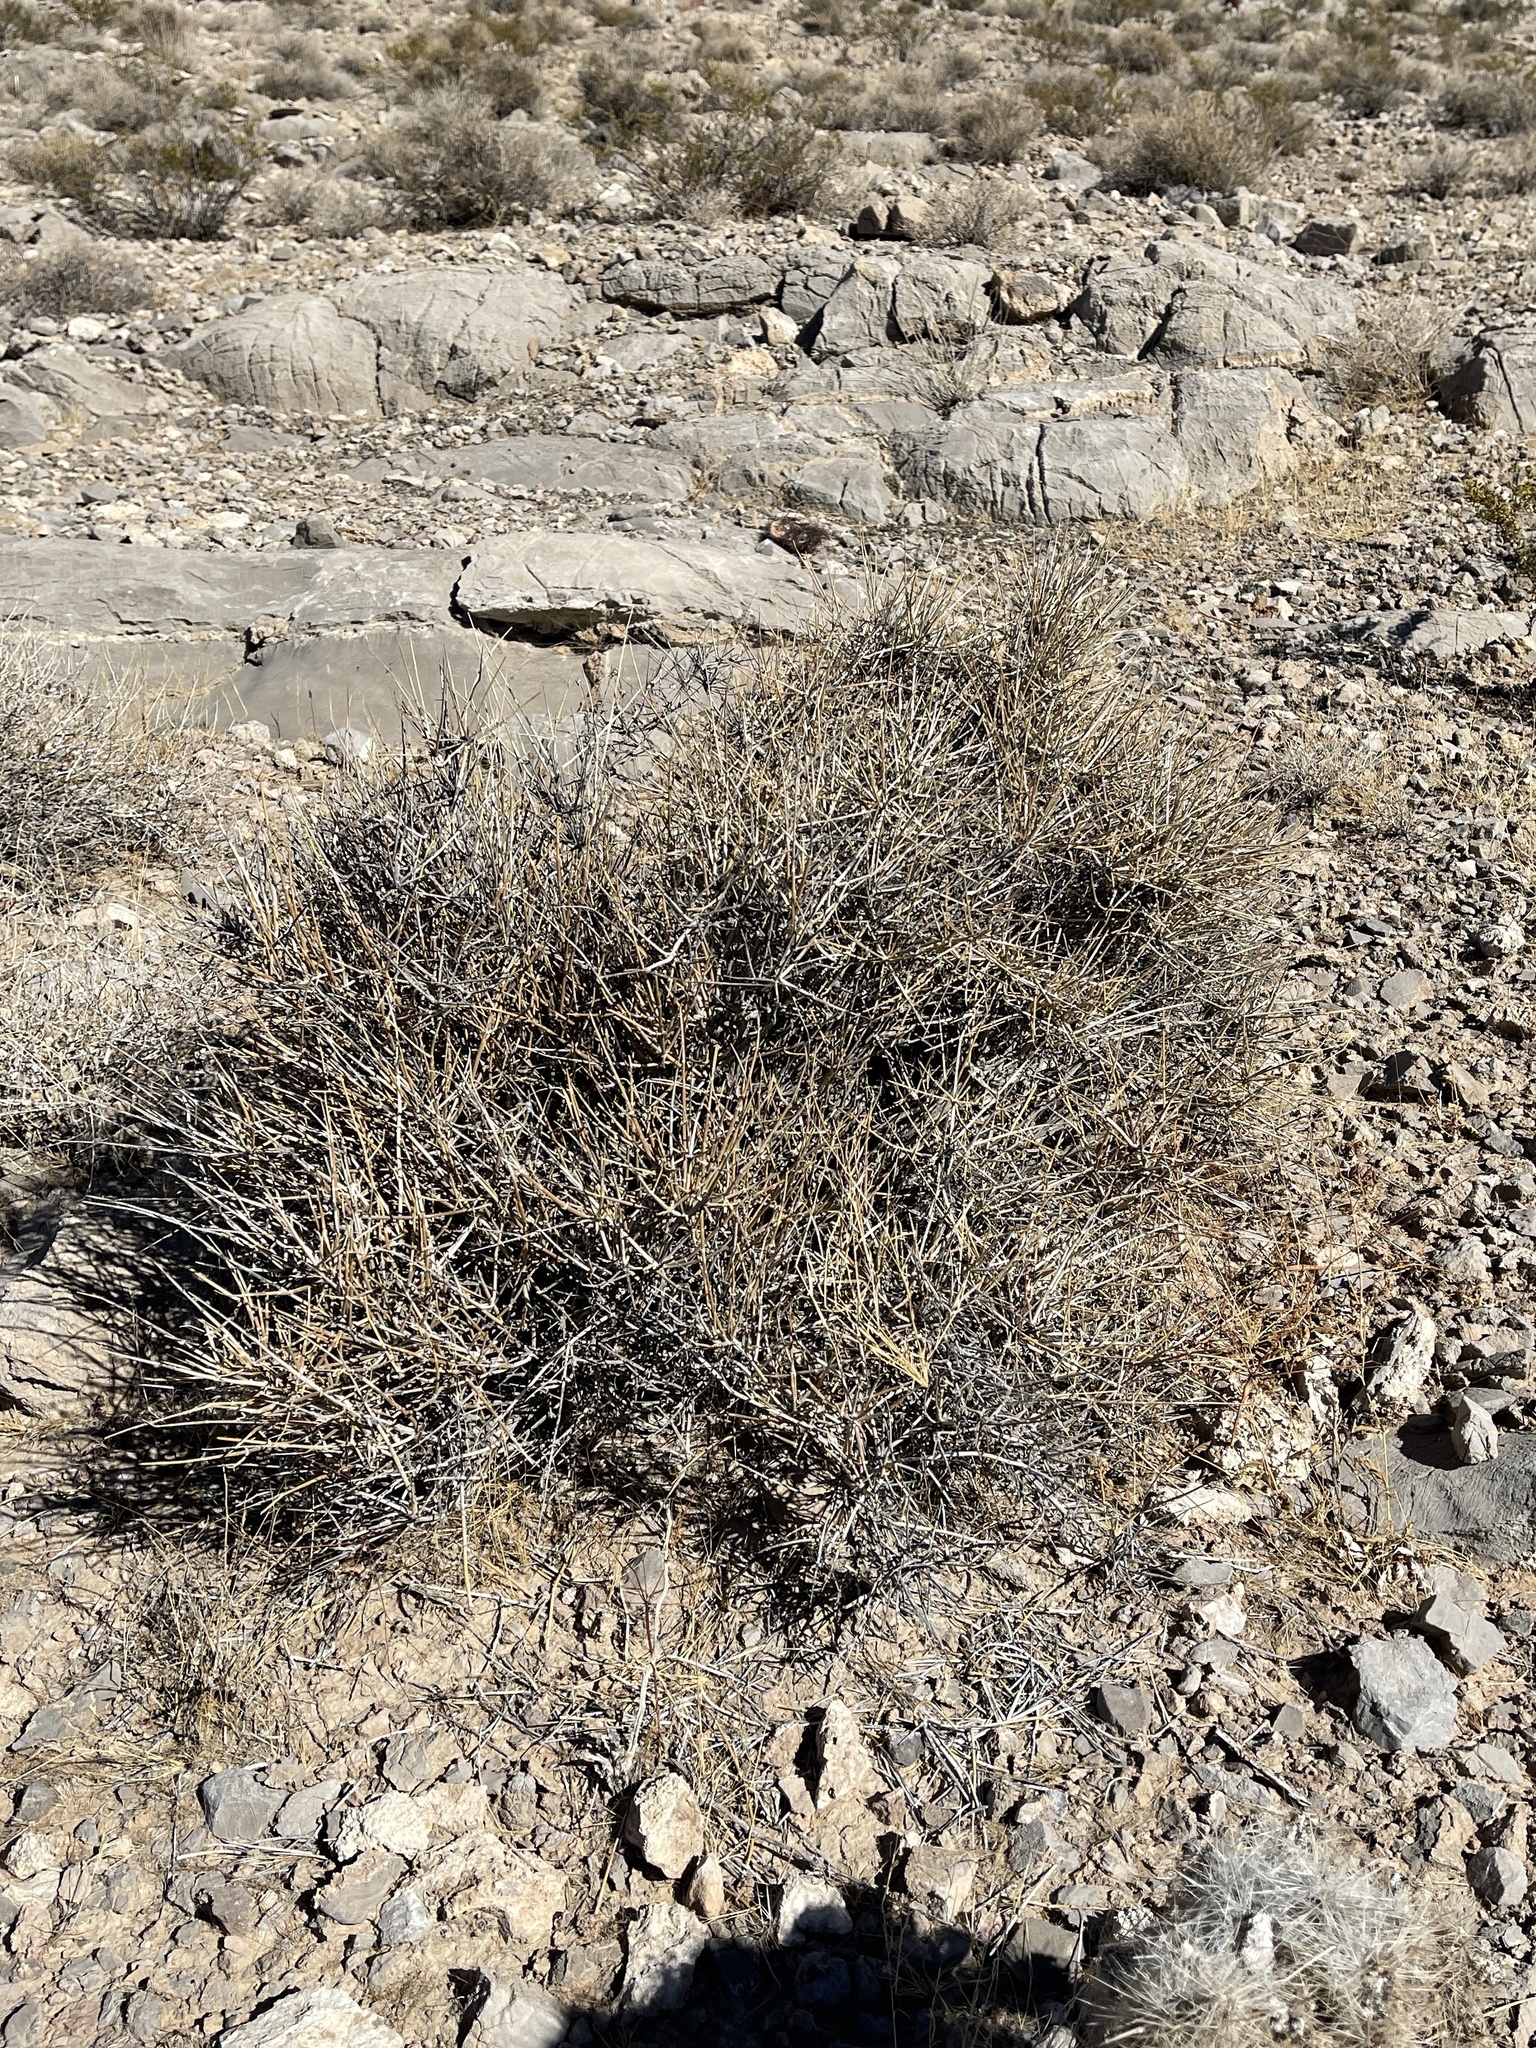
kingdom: Plantae
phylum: Tracheophyta
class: Gnetopsida
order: Ephedrales
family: Ephedraceae
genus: Ephedra
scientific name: Ephedra nevadensis
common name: Gray ephedra
